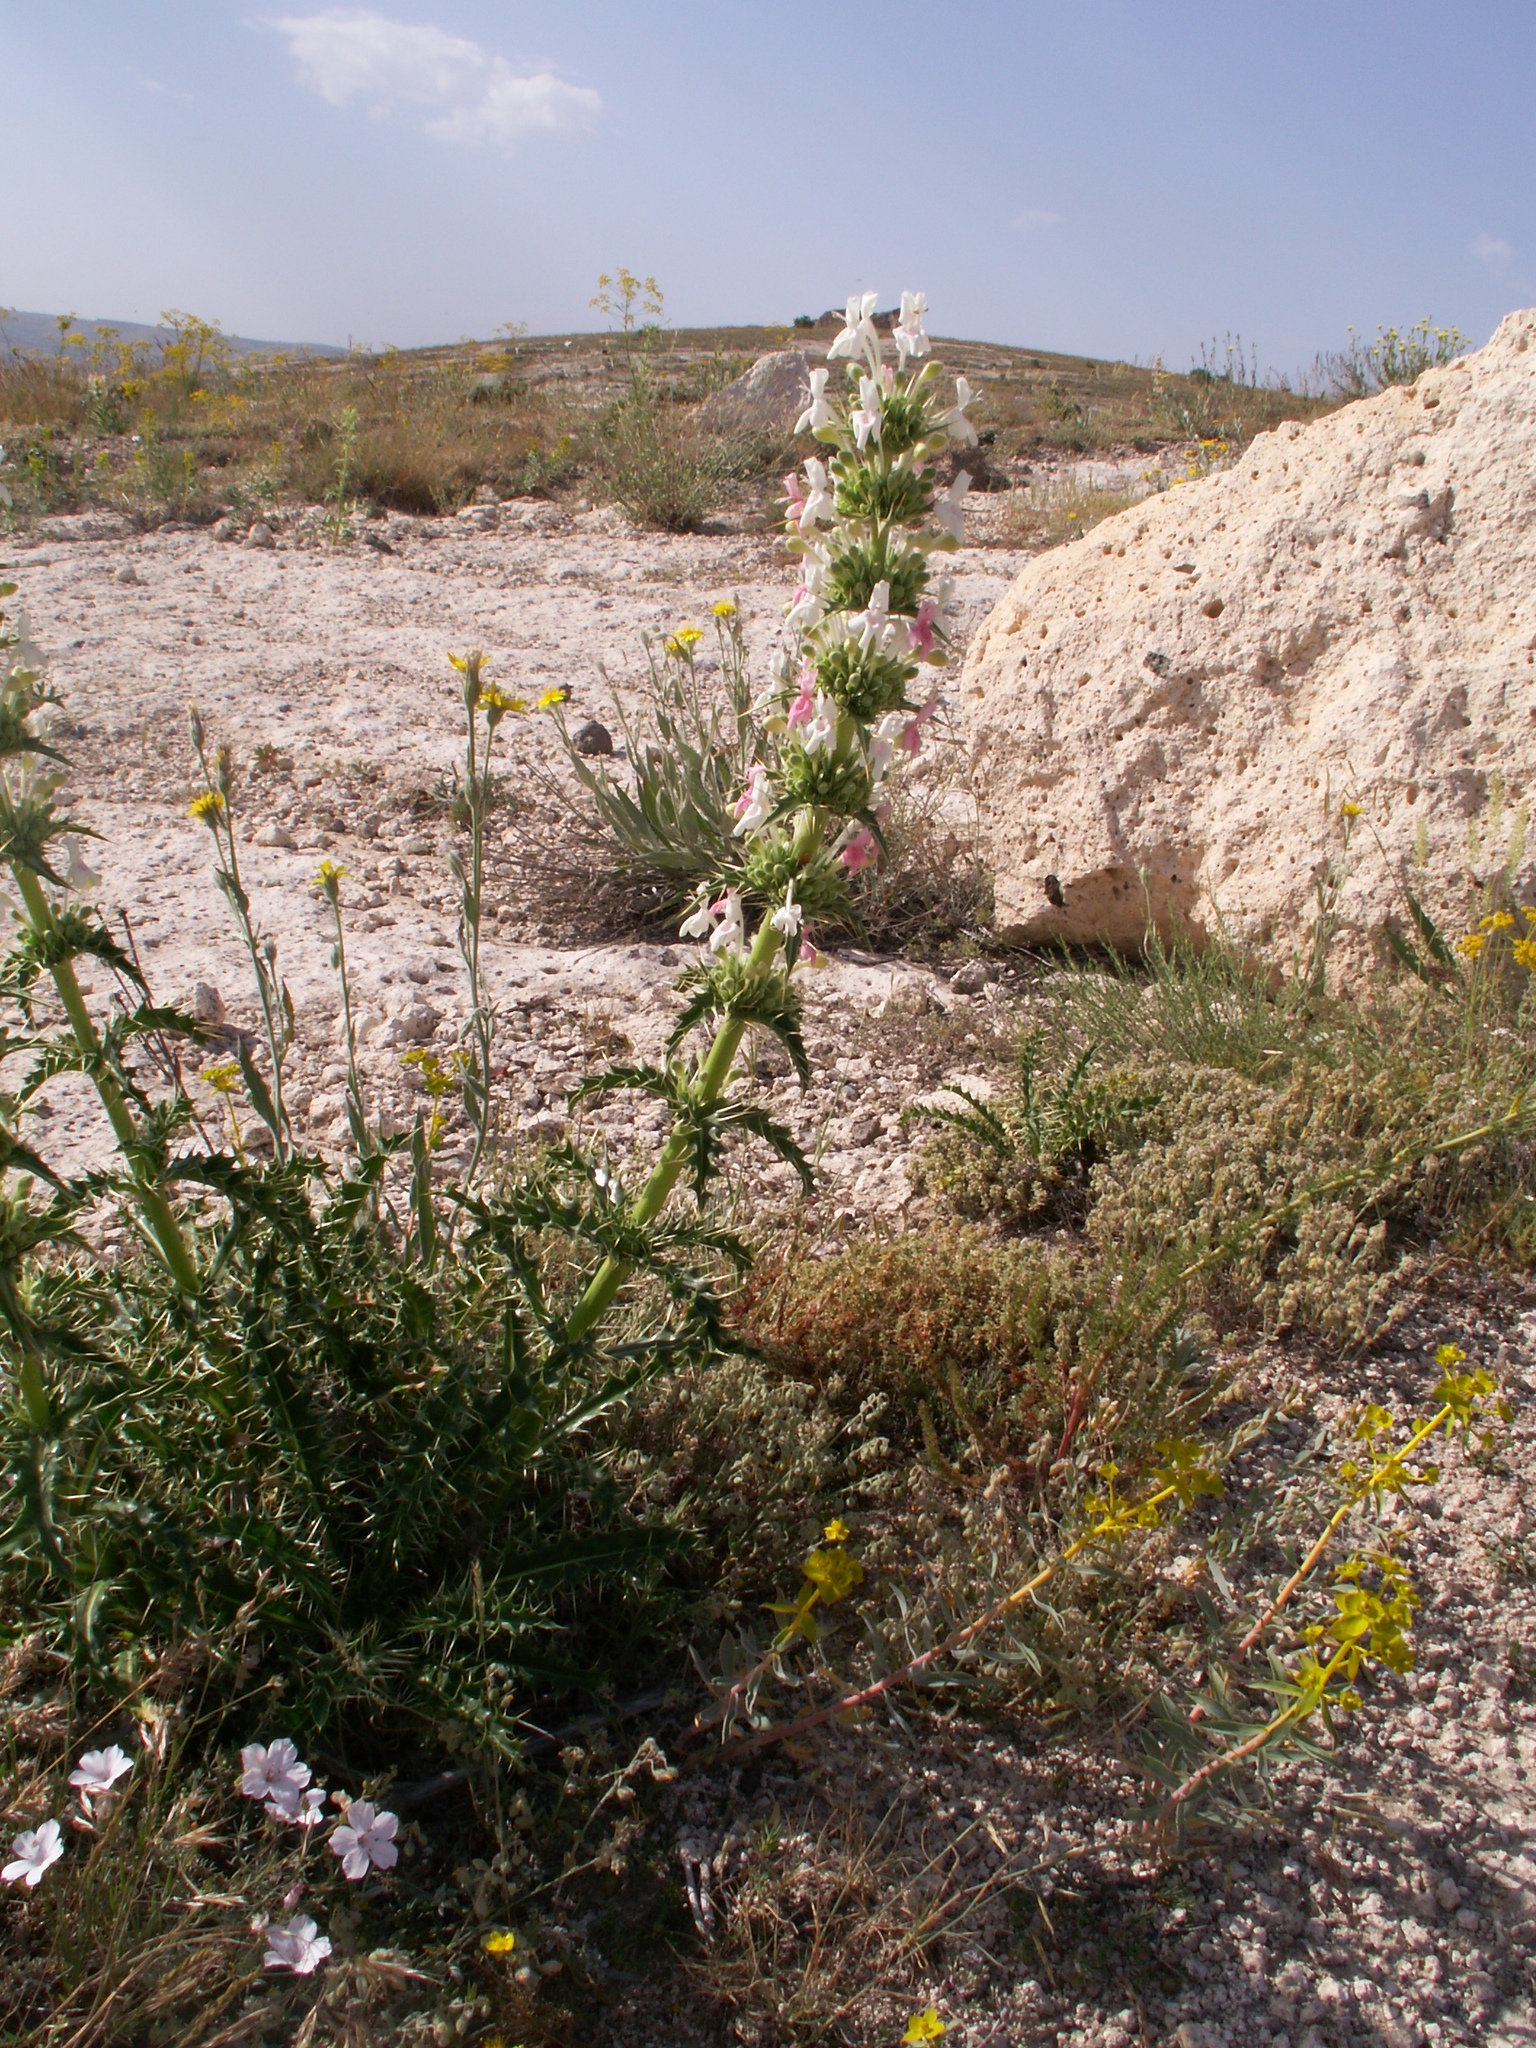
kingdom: Plantae
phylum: Tracheophyta
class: Magnoliopsida
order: Dipsacales
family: Caprifoliaceae
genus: Morina
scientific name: Morina persica
